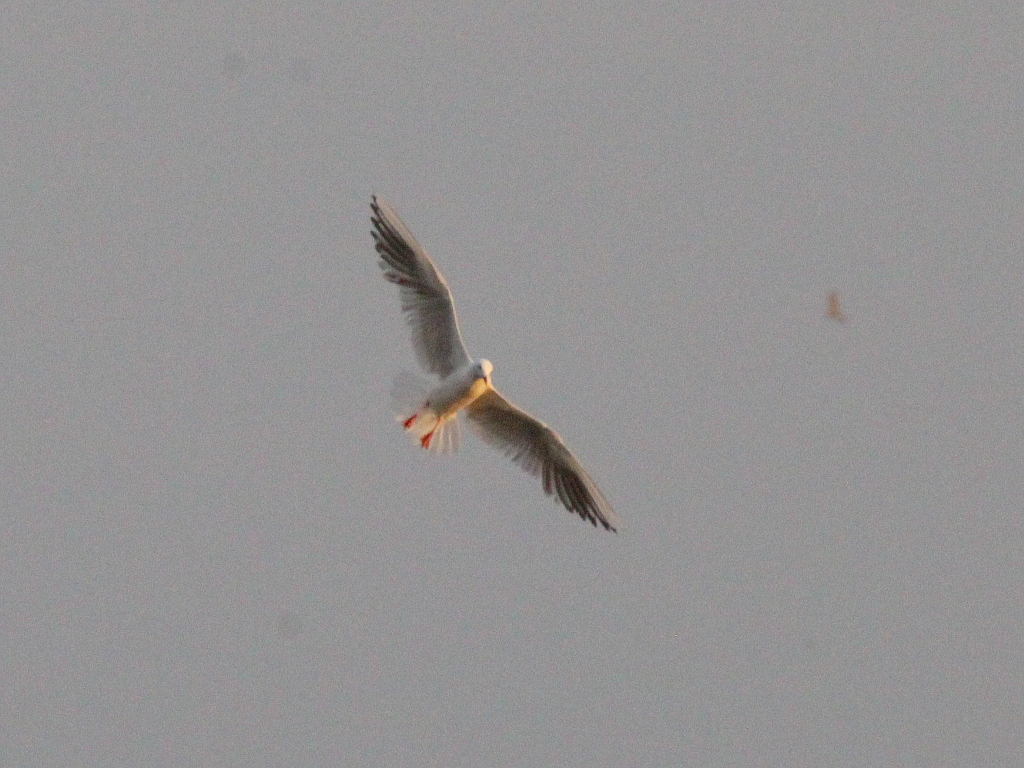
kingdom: Animalia
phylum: Chordata
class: Aves
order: Charadriiformes
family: Laridae
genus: Chroicocephalus
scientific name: Chroicocephalus genei
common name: Slender-billed gull
